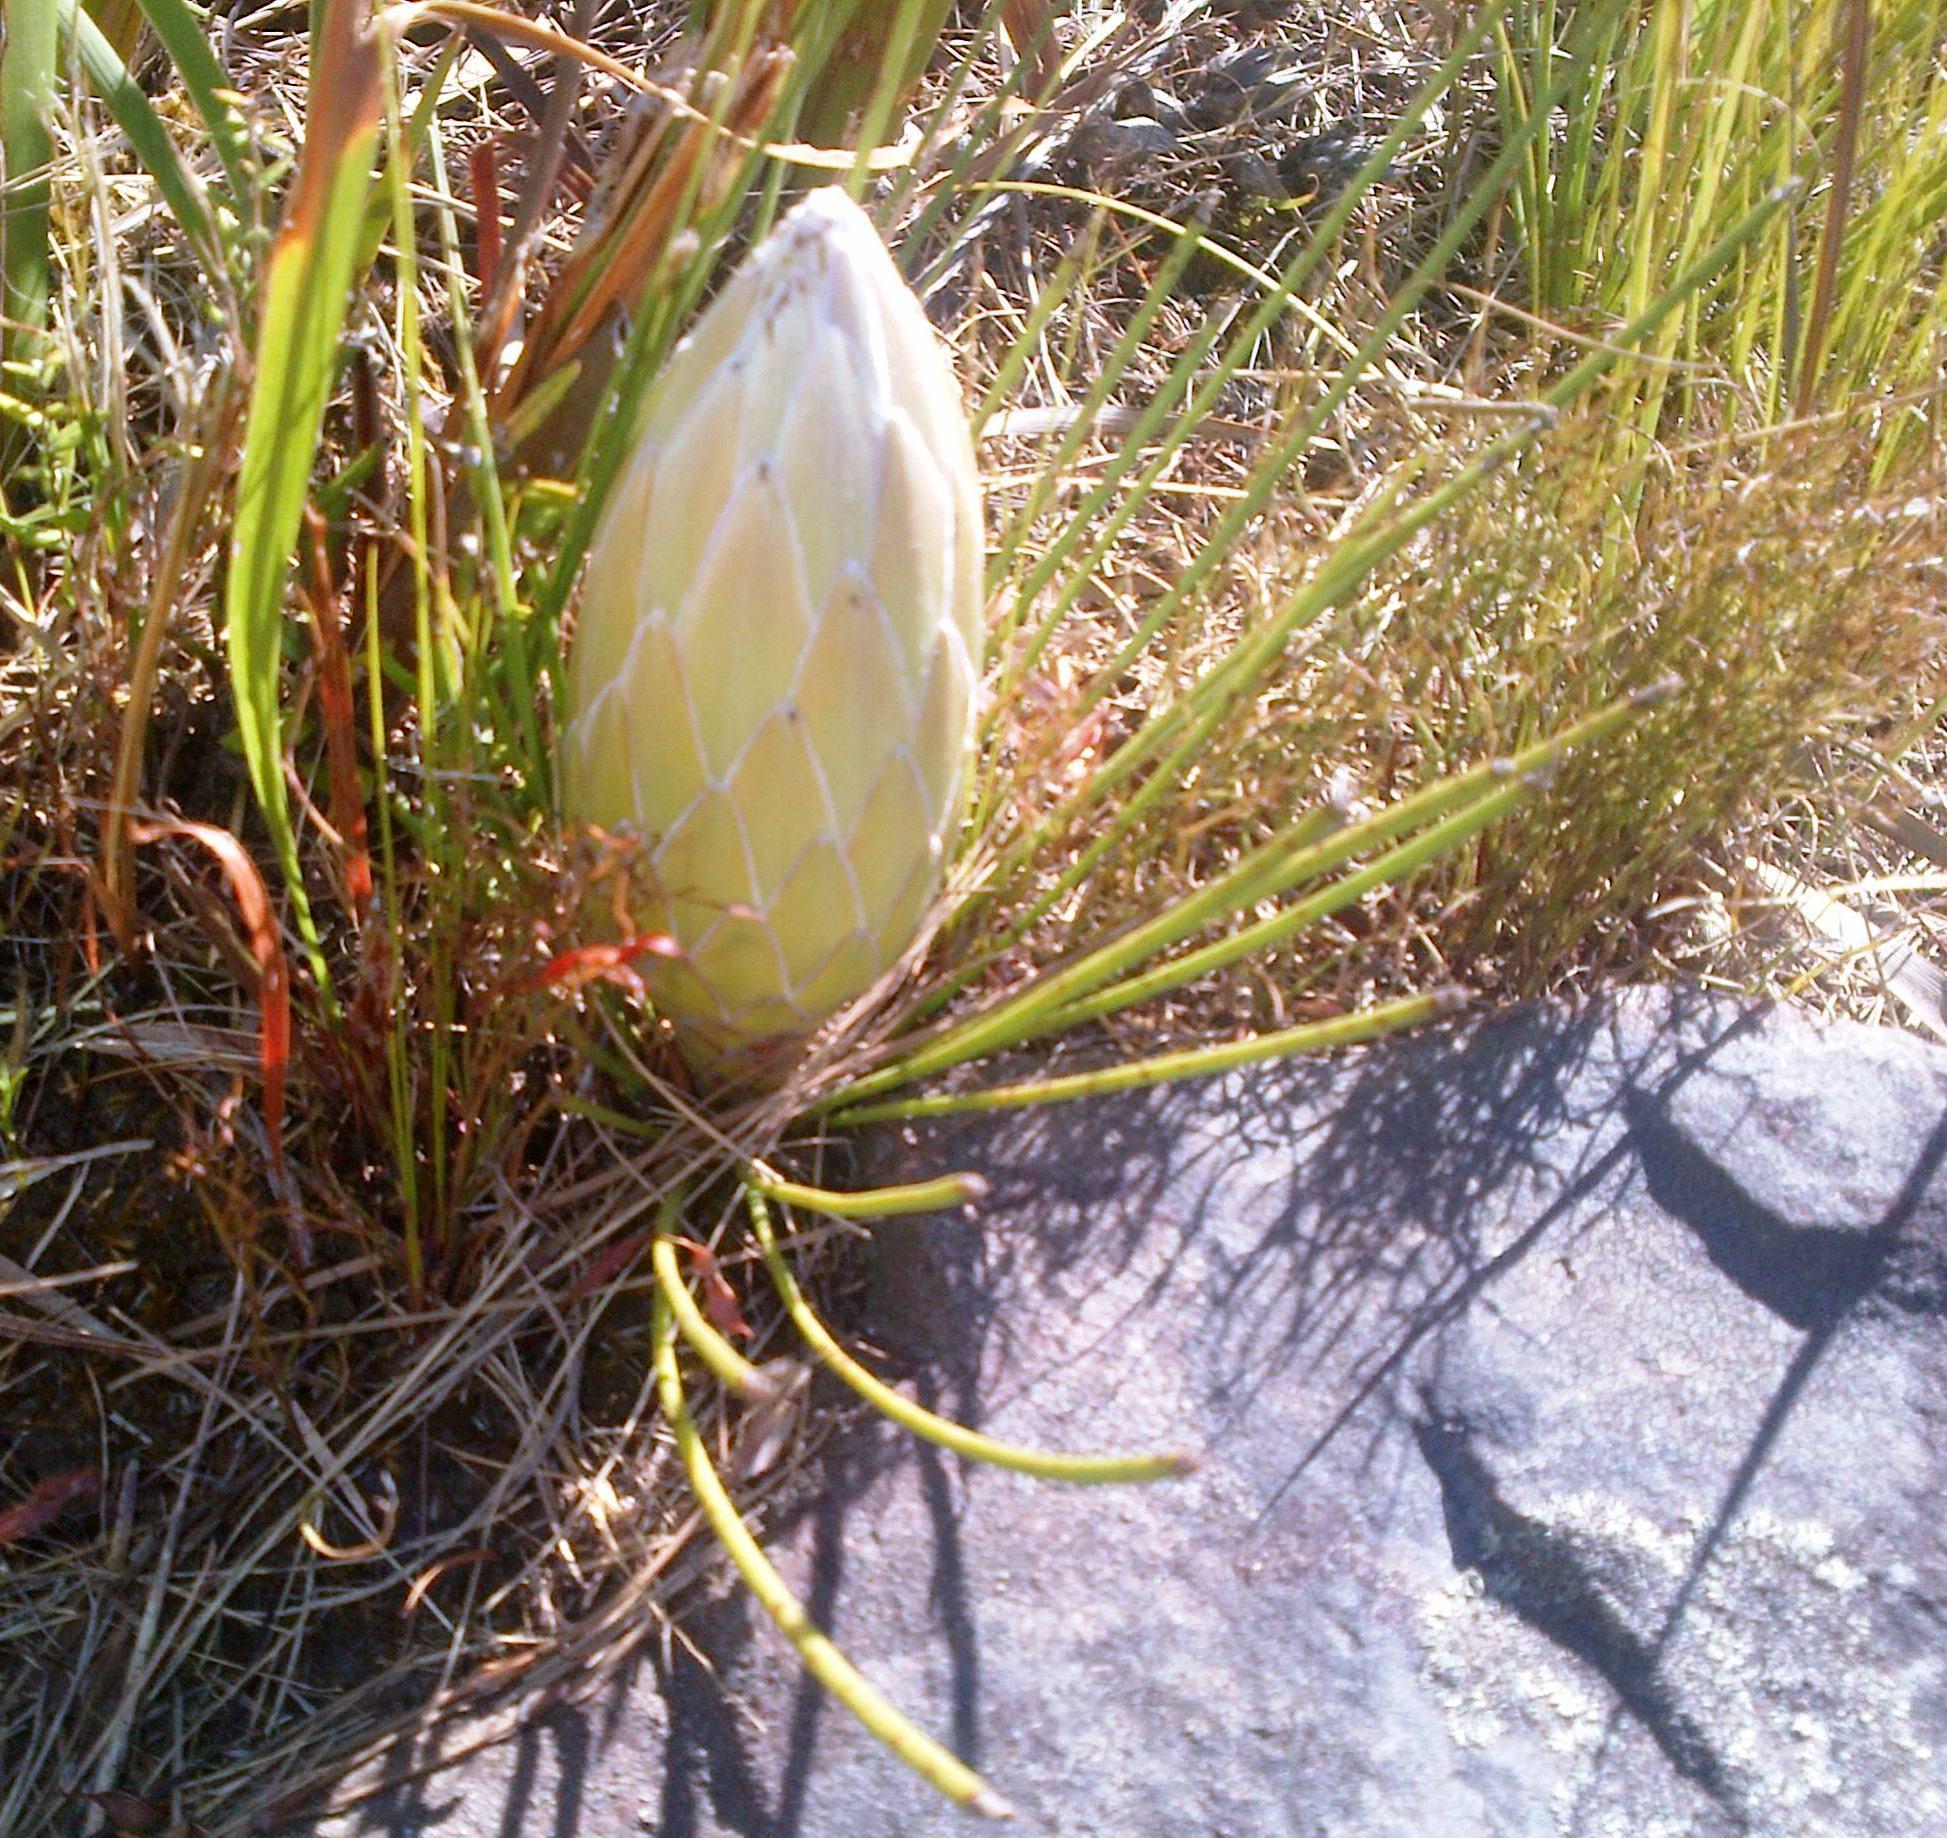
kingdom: Plantae
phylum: Tracheophyta
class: Magnoliopsida
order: Proteales
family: Proteaceae
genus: Protea
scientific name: Protea lorea
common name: Thong-leaf sugarbush
